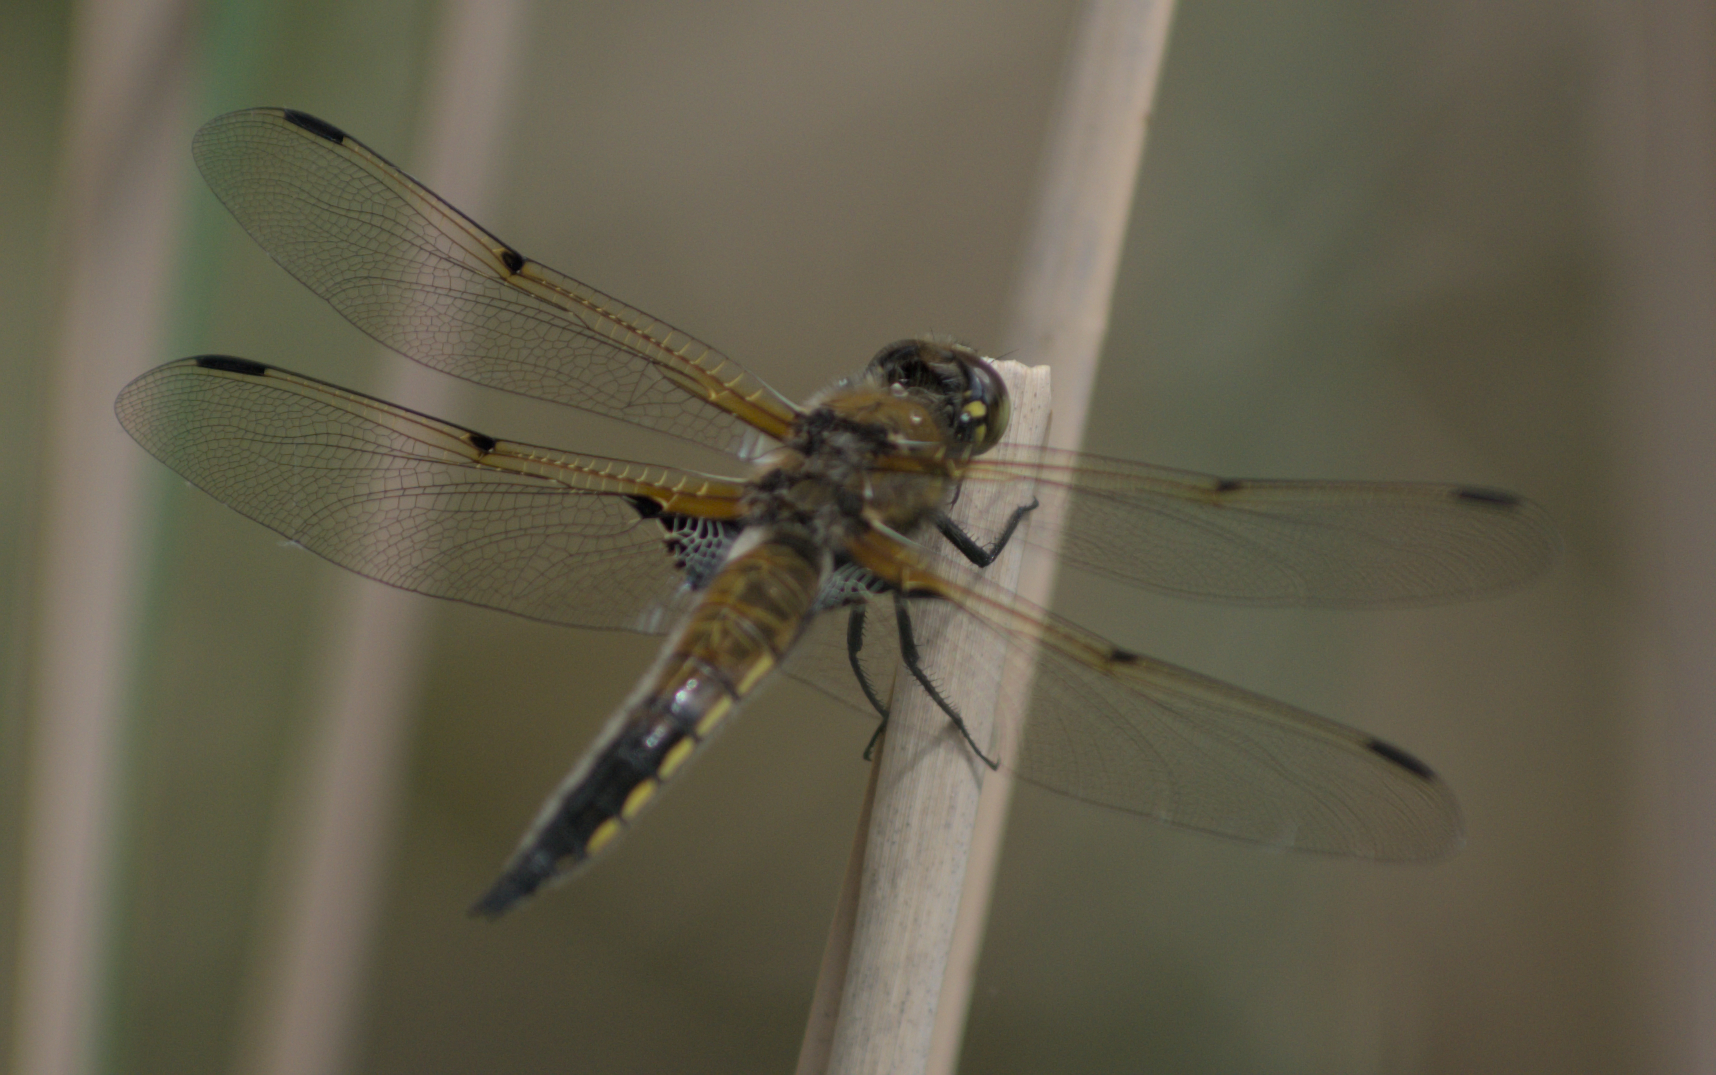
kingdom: Animalia
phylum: Arthropoda
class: Insecta
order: Odonata
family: Libellulidae
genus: Libellula
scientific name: Libellula quadrimaculata
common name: Four-spotted chaser
